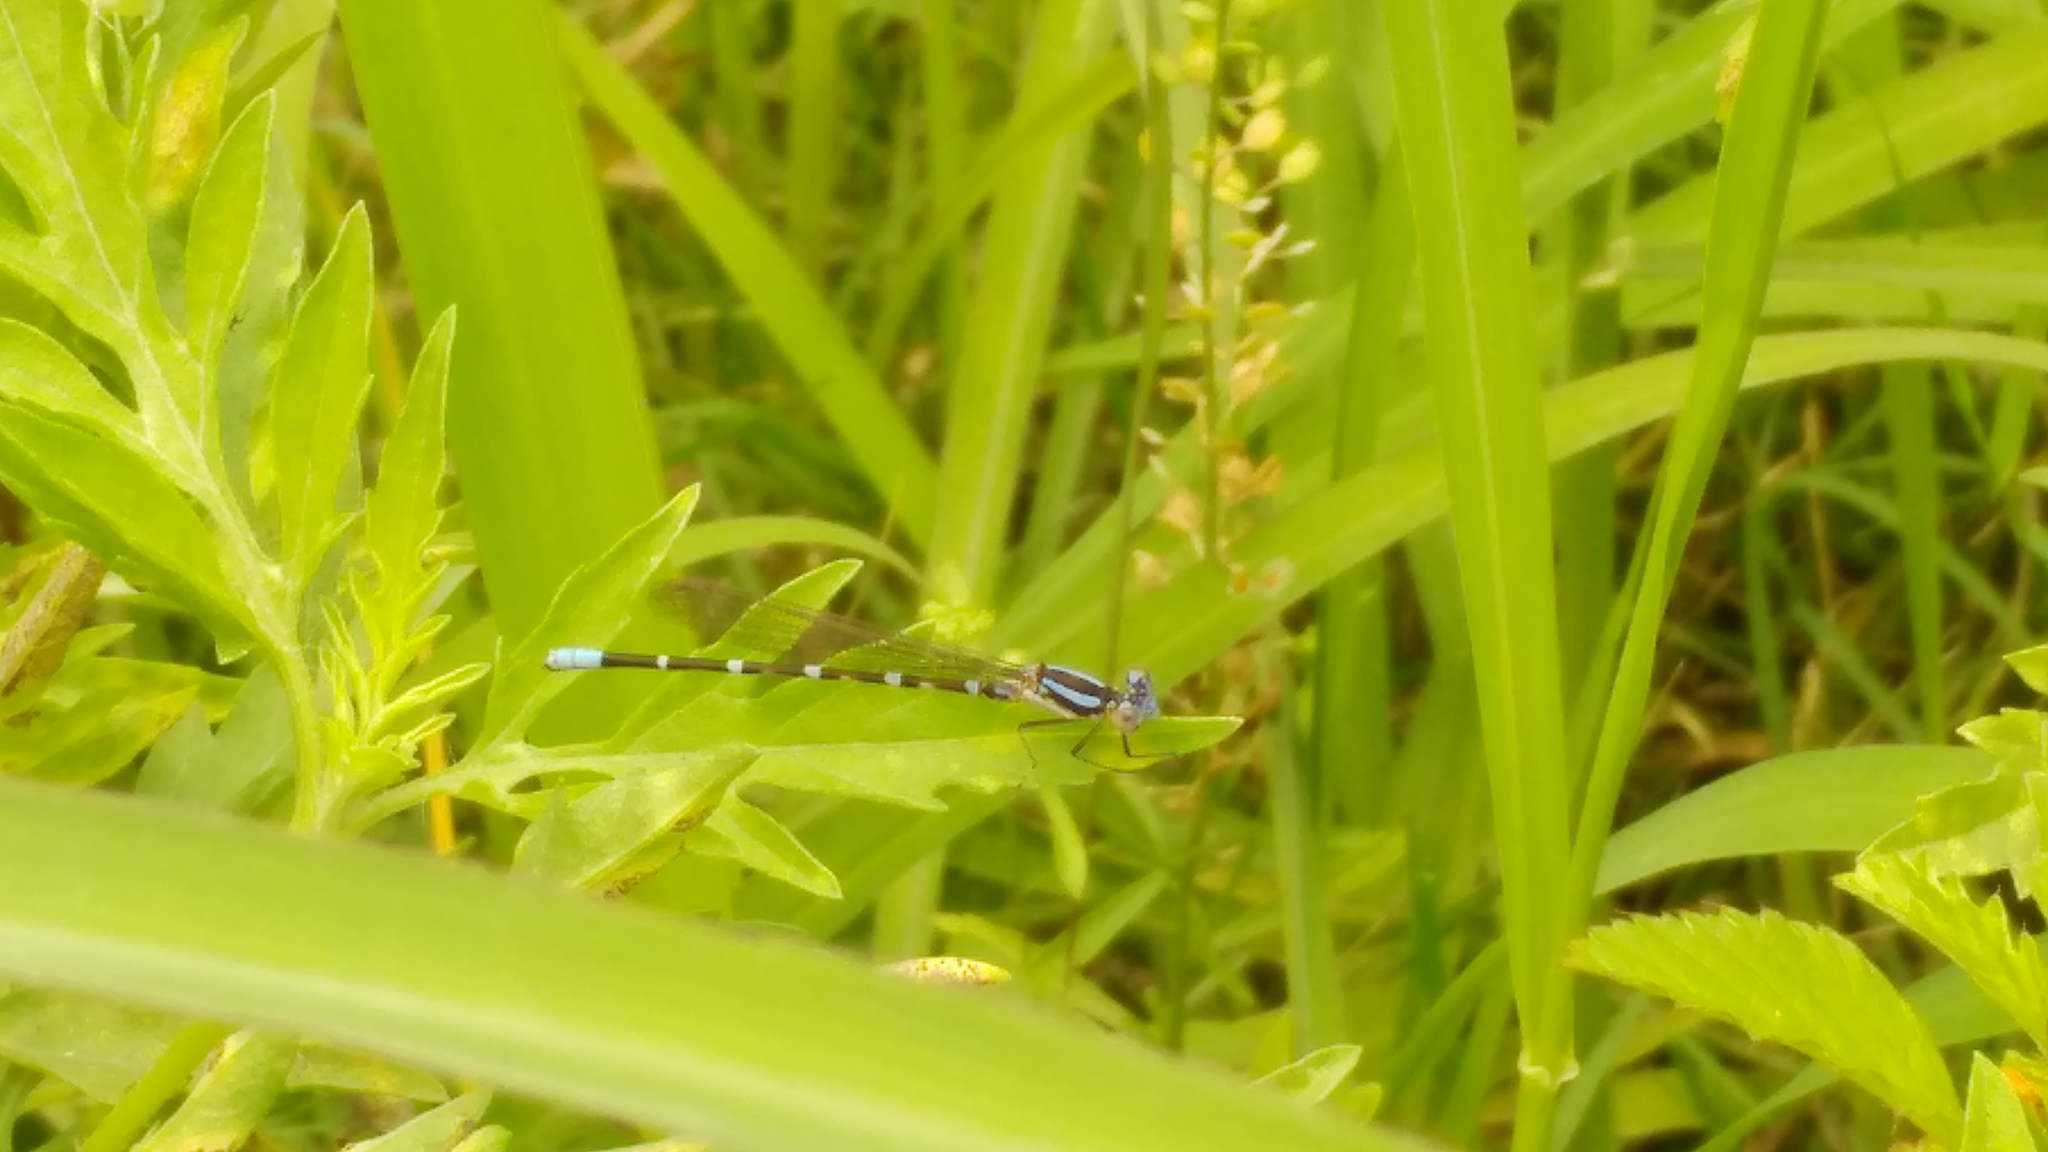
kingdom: Animalia
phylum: Arthropoda
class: Insecta
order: Odonata
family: Coenagrionidae
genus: Argia
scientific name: Argia sedula
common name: Blue-ringed dancer
